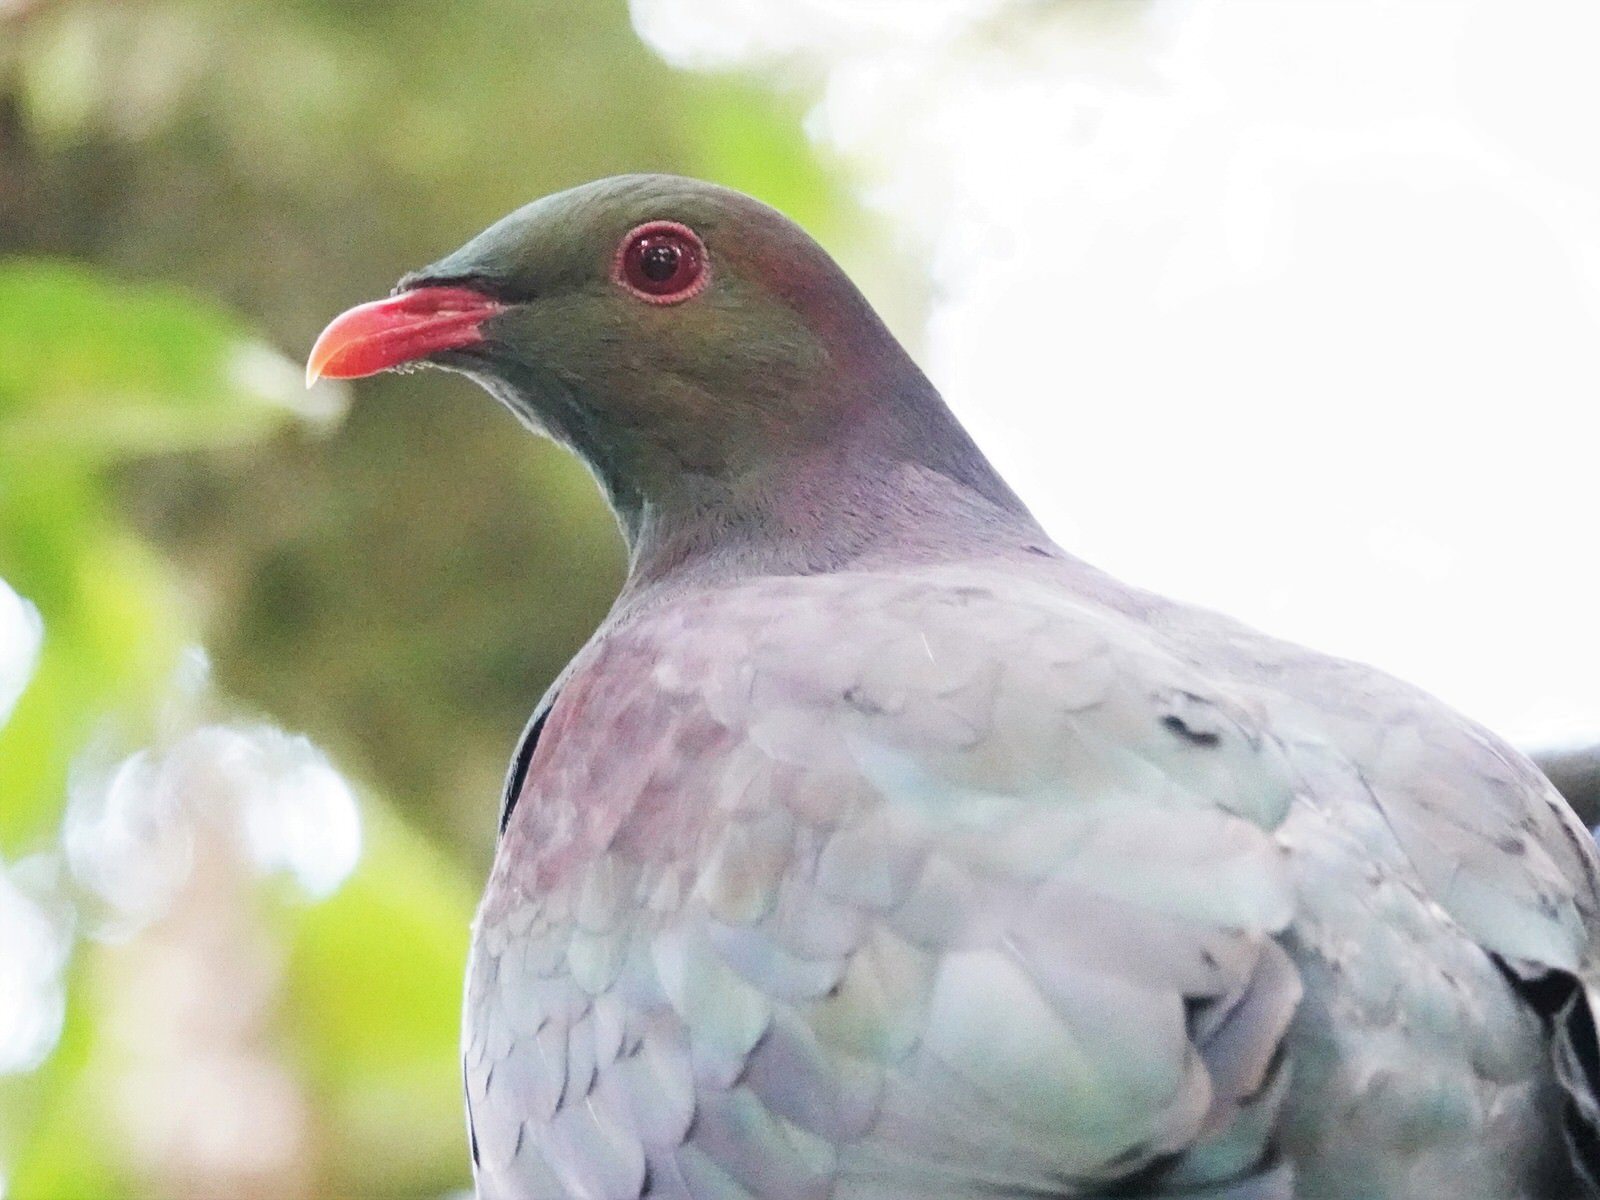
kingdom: Animalia
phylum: Chordata
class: Aves
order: Columbiformes
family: Columbidae
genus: Hemiphaga
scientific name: Hemiphaga novaeseelandiae
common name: New zealand pigeon
